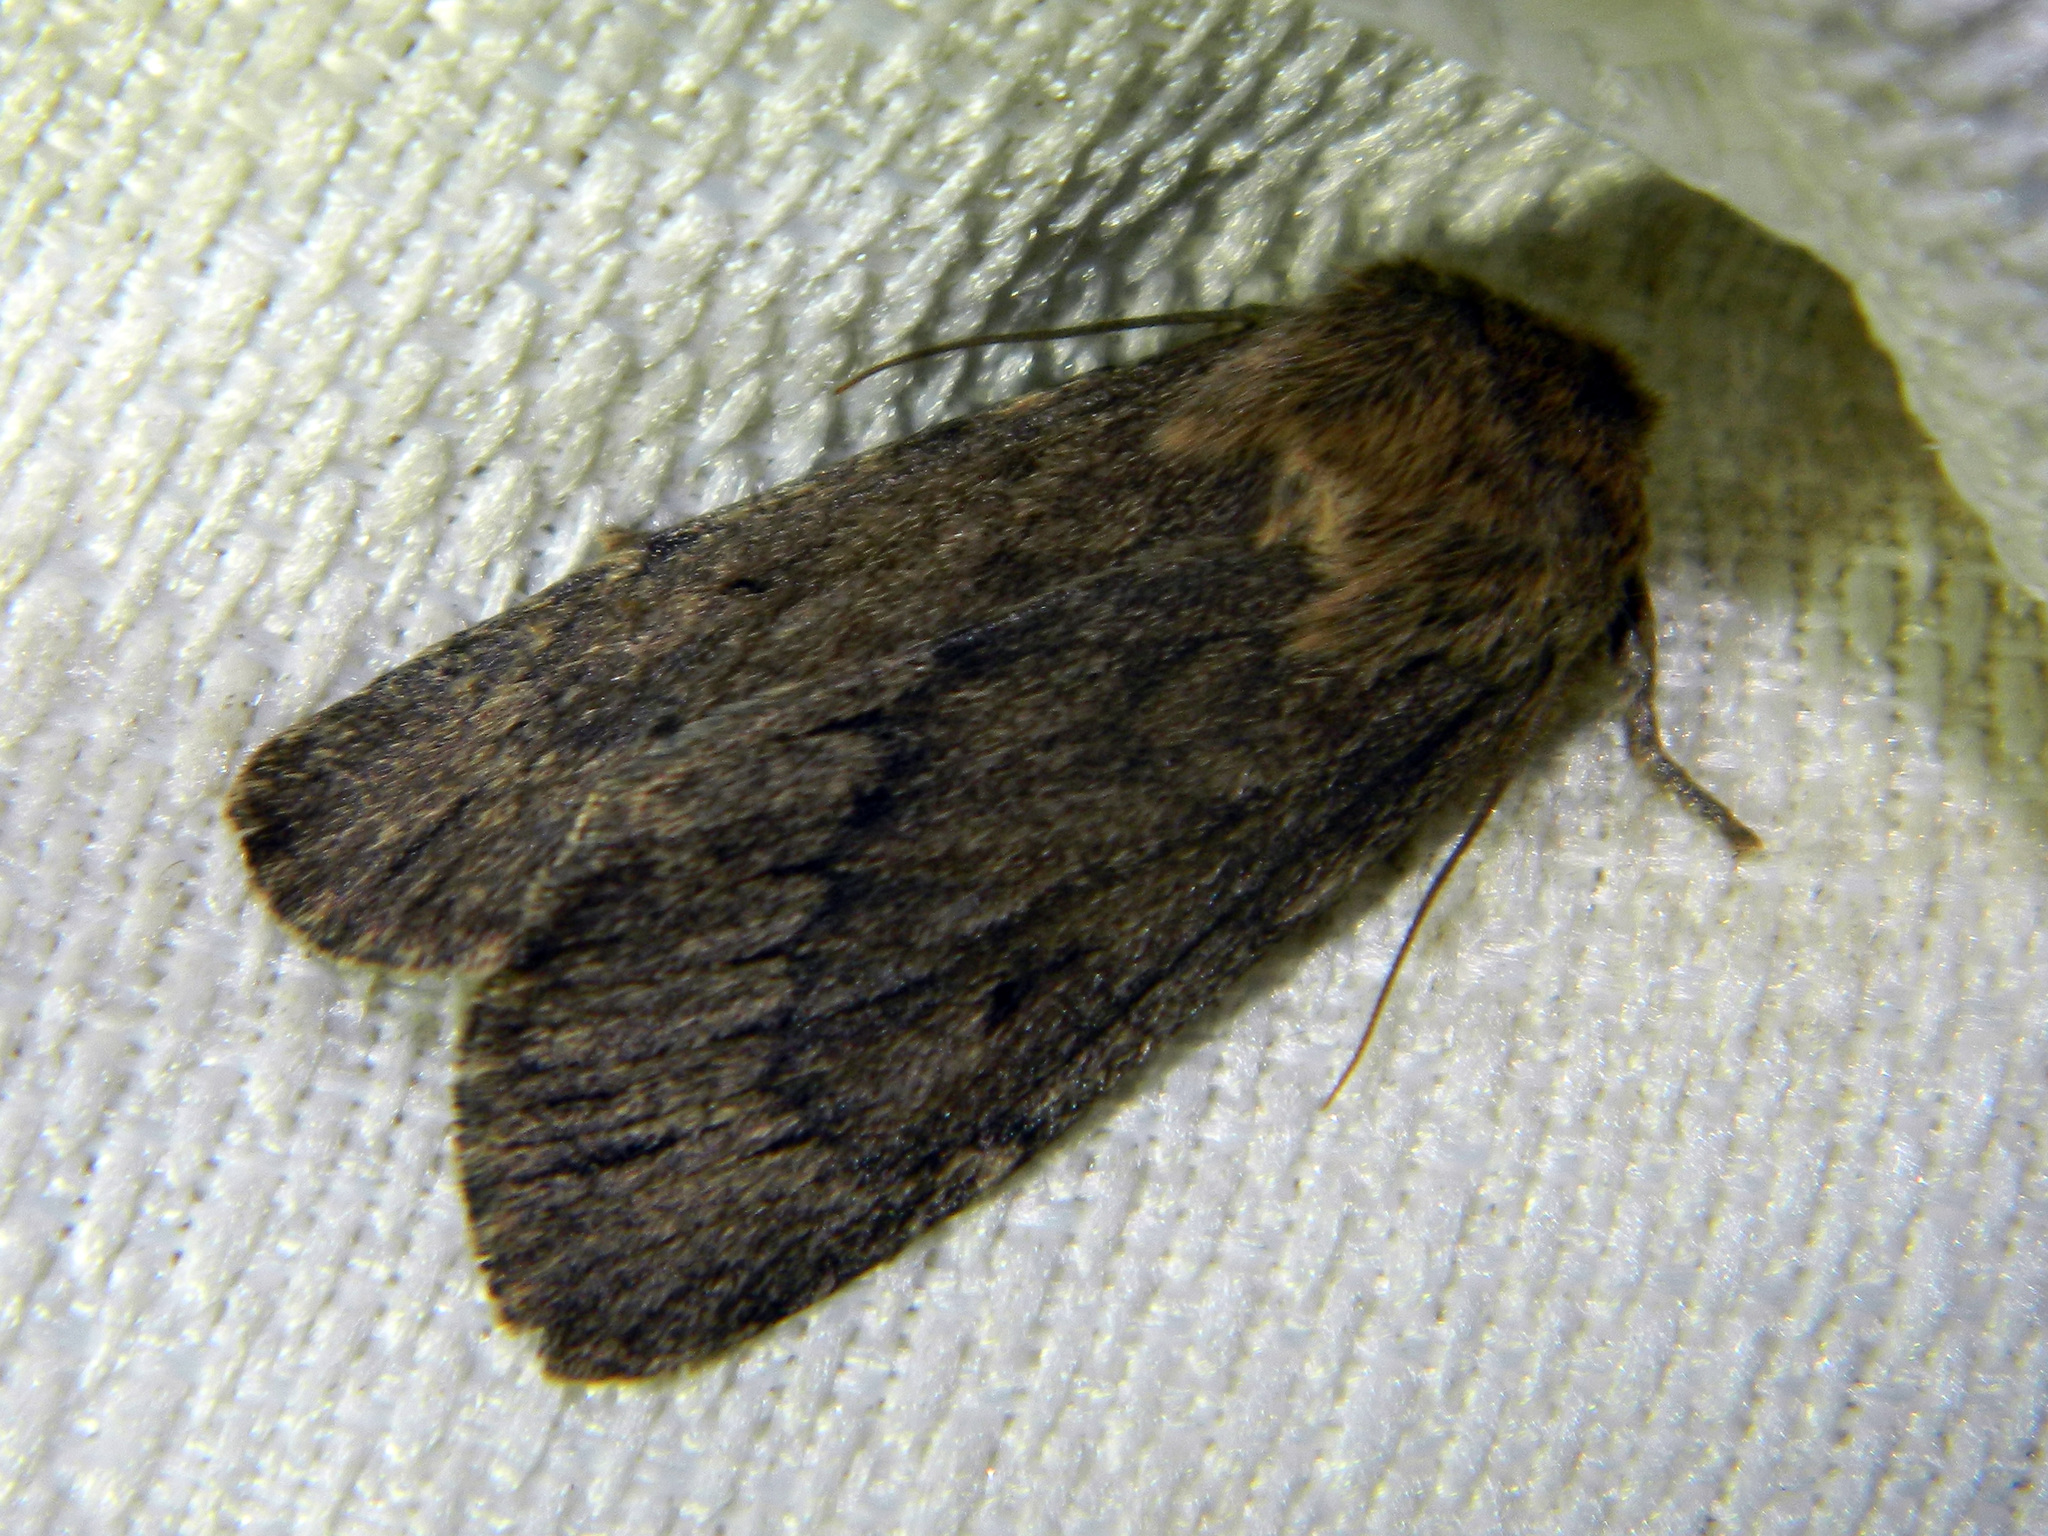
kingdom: Animalia
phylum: Arthropoda
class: Insecta
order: Lepidoptera
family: Noctuidae
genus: Ufeus
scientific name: Ufeus satyricus
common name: Brown satyr moth
